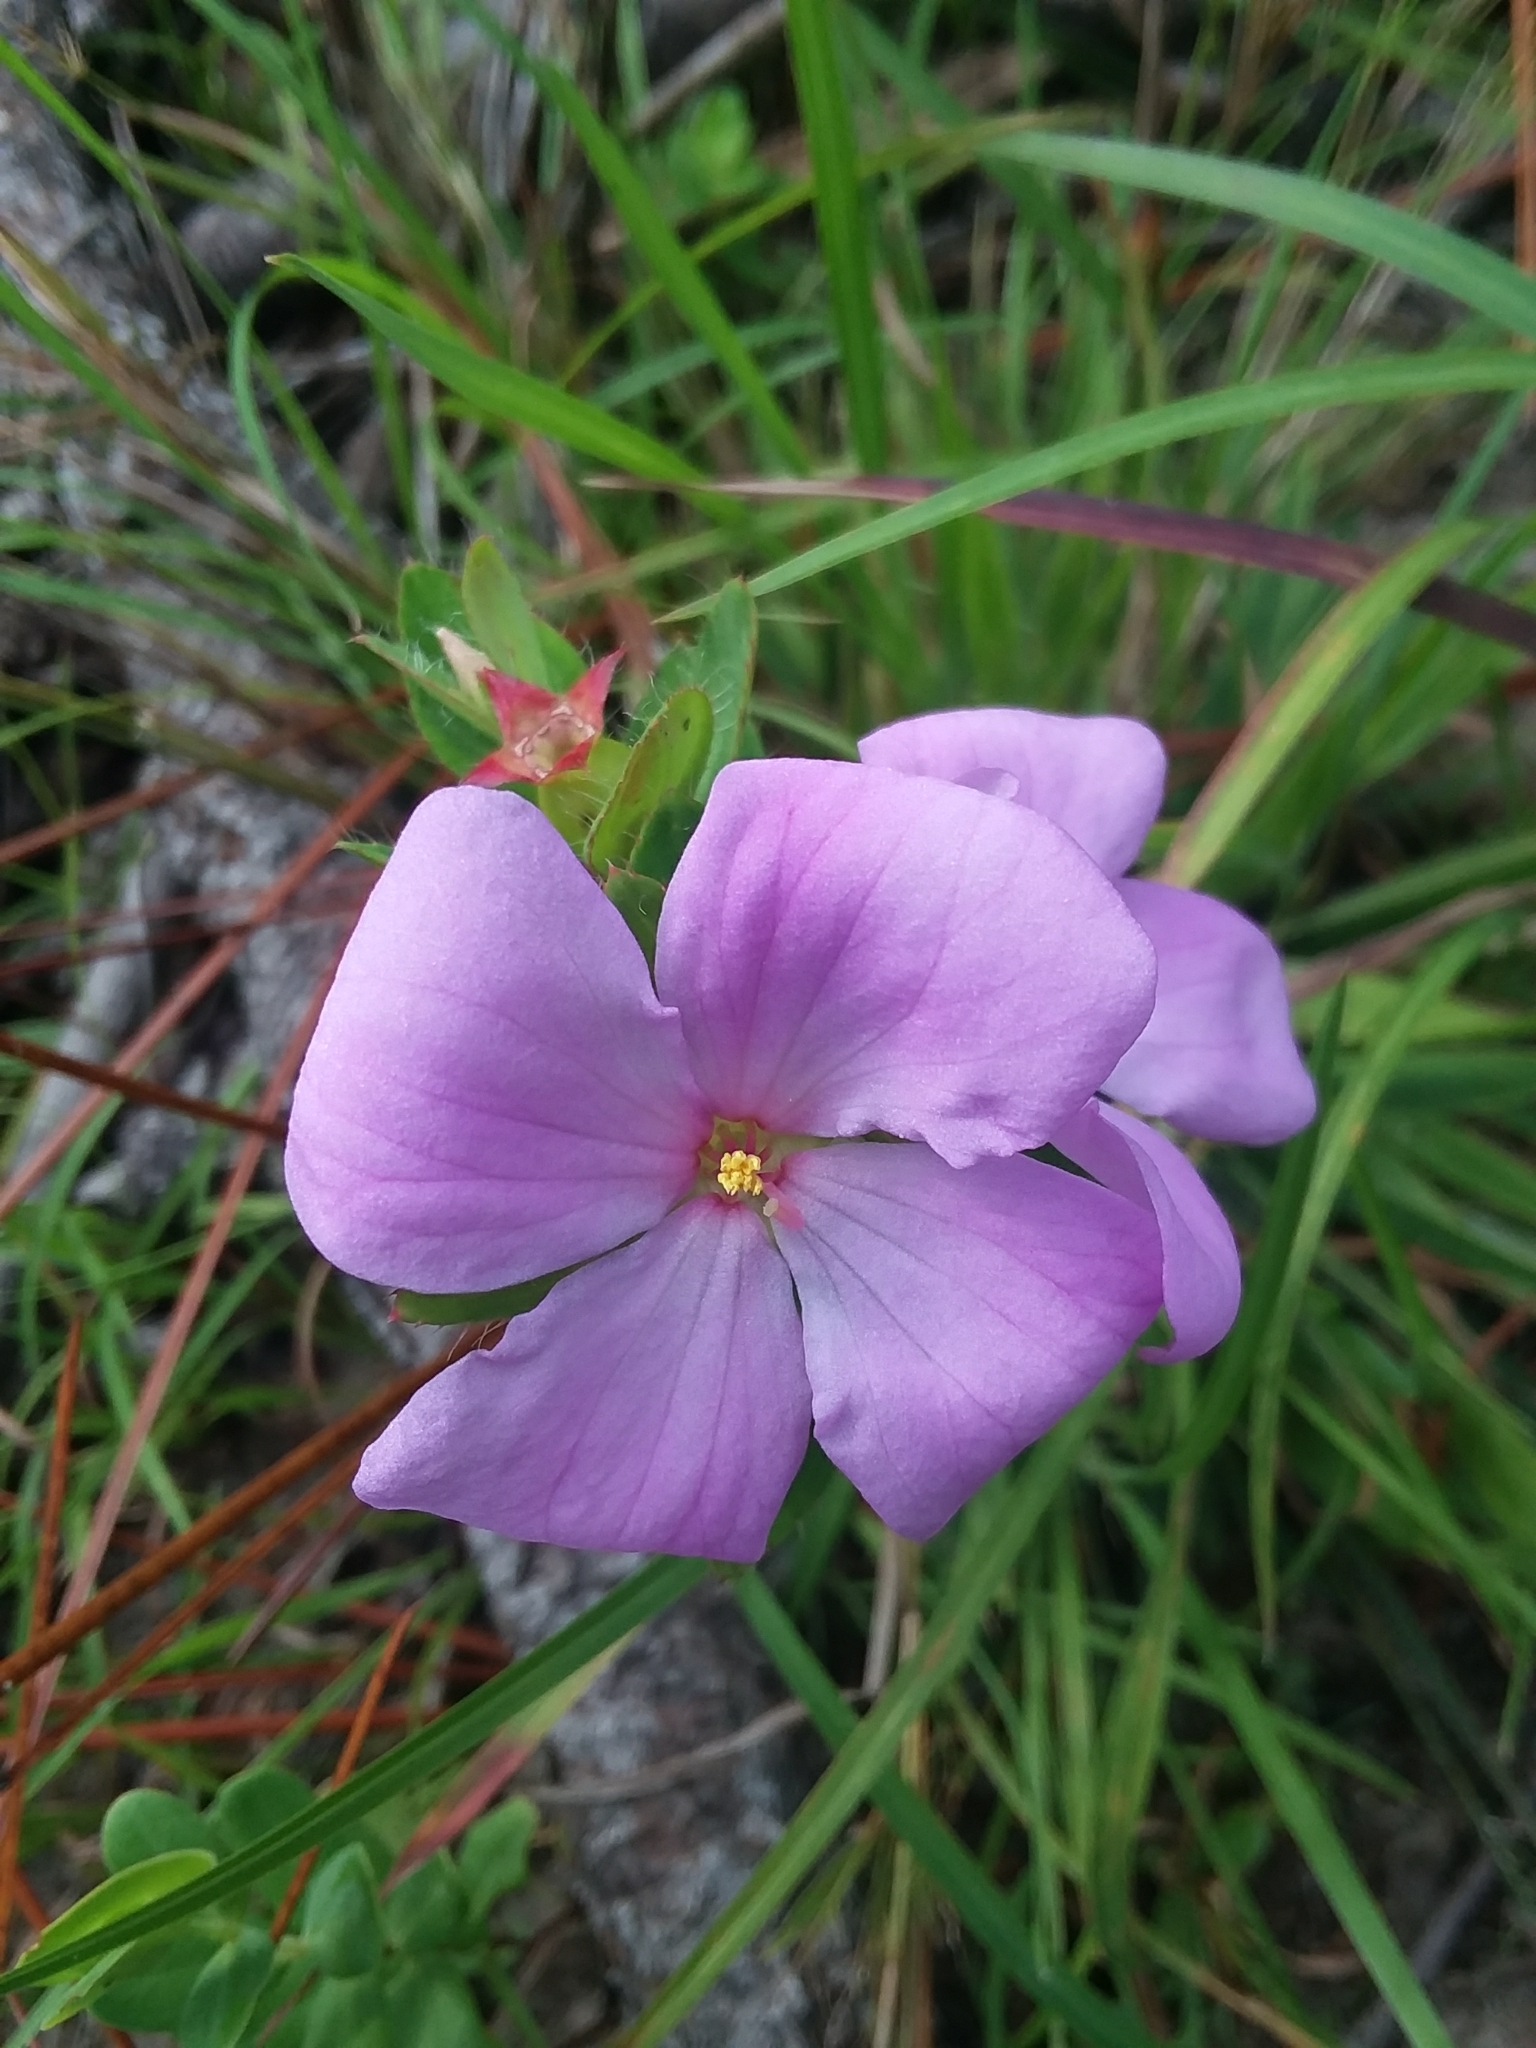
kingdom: Plantae
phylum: Tracheophyta
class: Magnoliopsida
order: Myrtales
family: Melastomataceae
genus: Rhexia
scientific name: Rhexia petiolata
